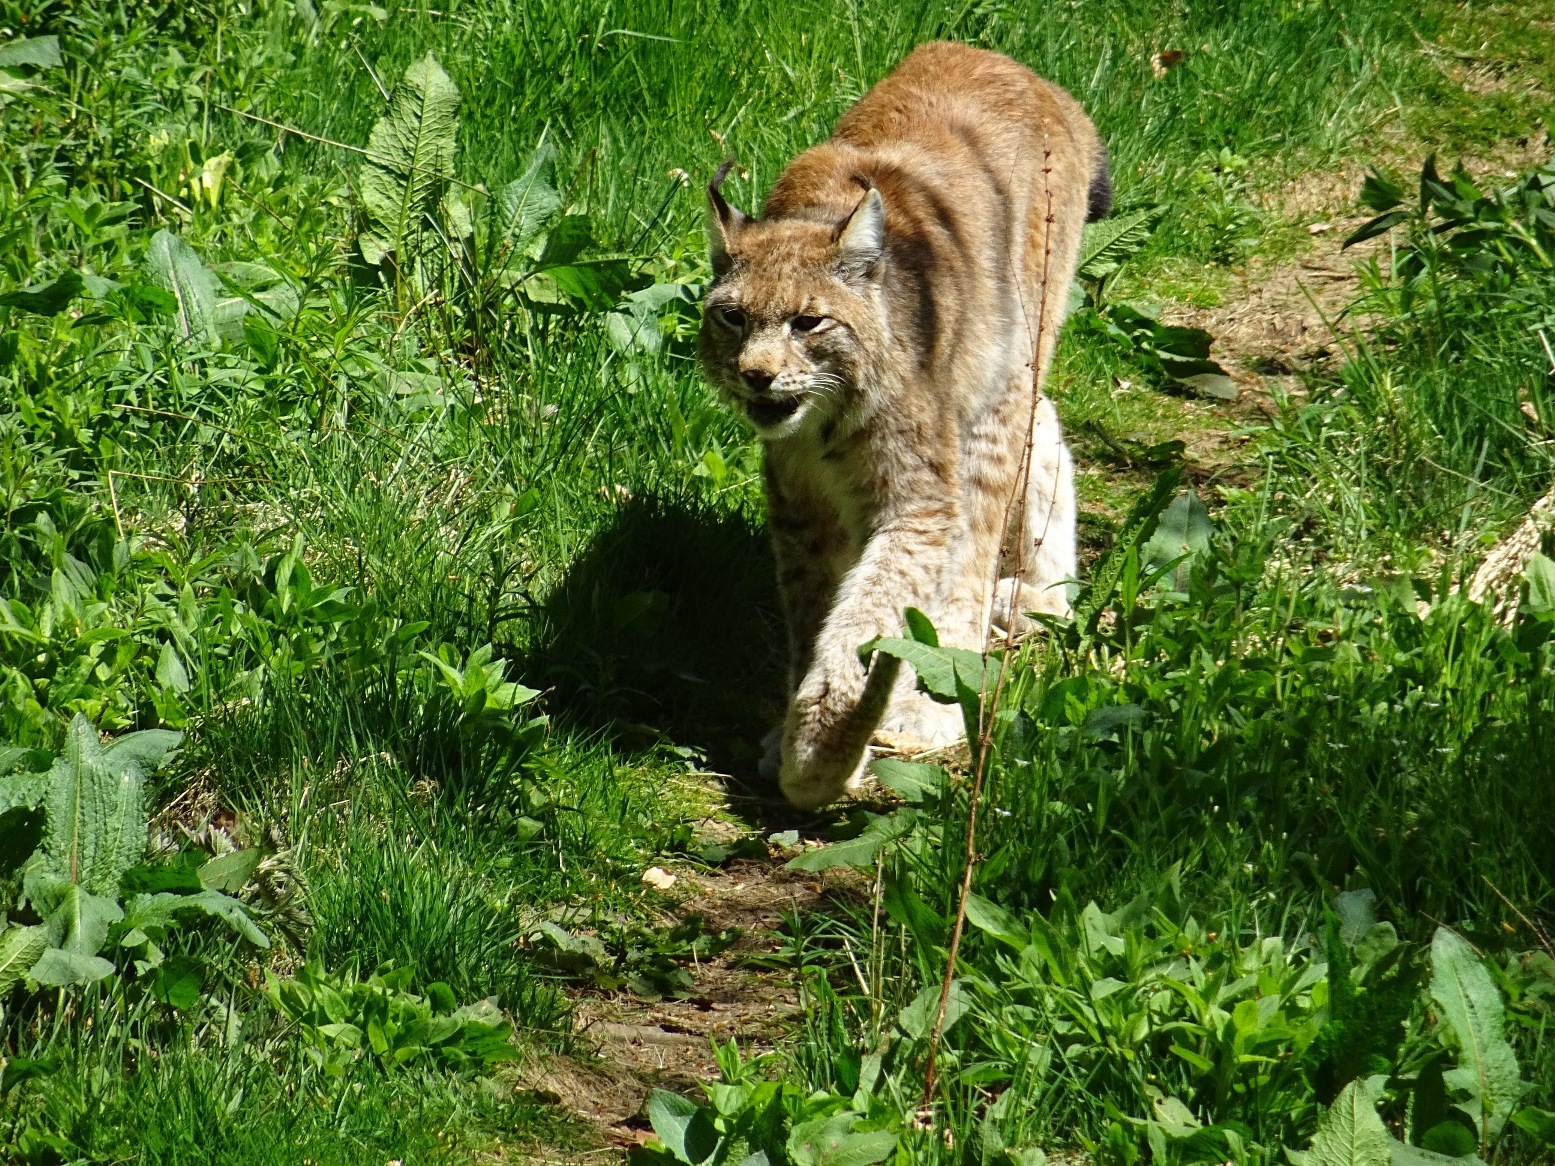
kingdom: Animalia
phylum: Chordata
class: Mammalia
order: Carnivora
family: Felidae
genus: Lynx
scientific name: Lynx lynx
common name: Eurasian lynx
